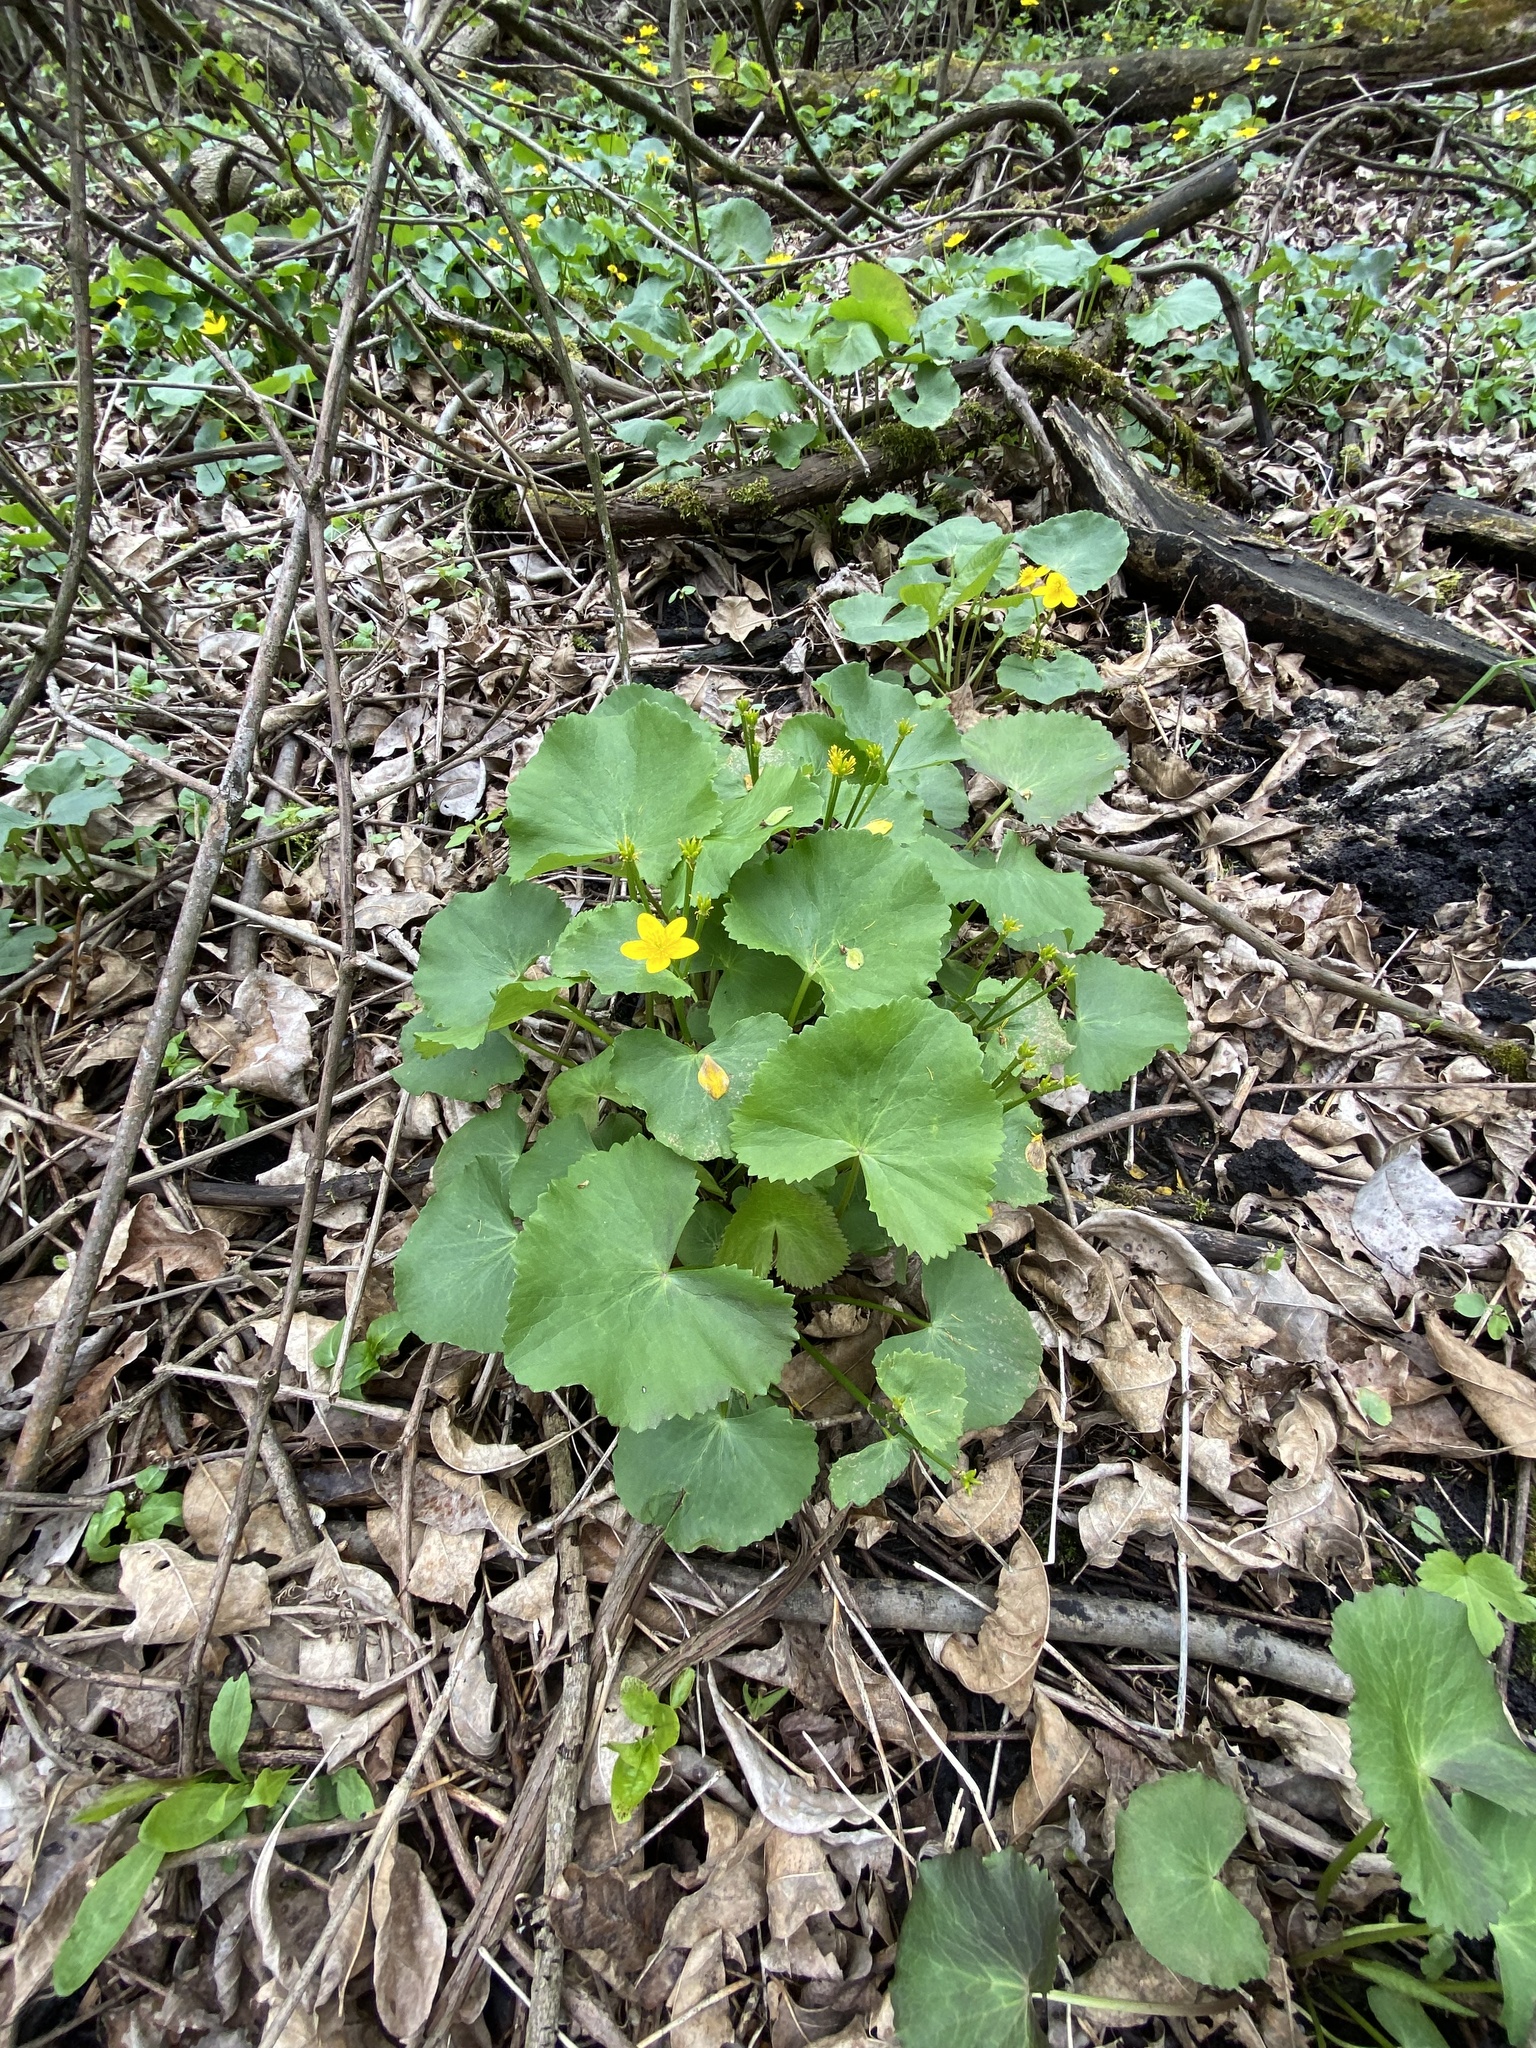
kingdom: Plantae
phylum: Tracheophyta
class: Magnoliopsida
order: Ranunculales
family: Ranunculaceae
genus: Caltha
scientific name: Caltha palustris
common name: Marsh marigold
